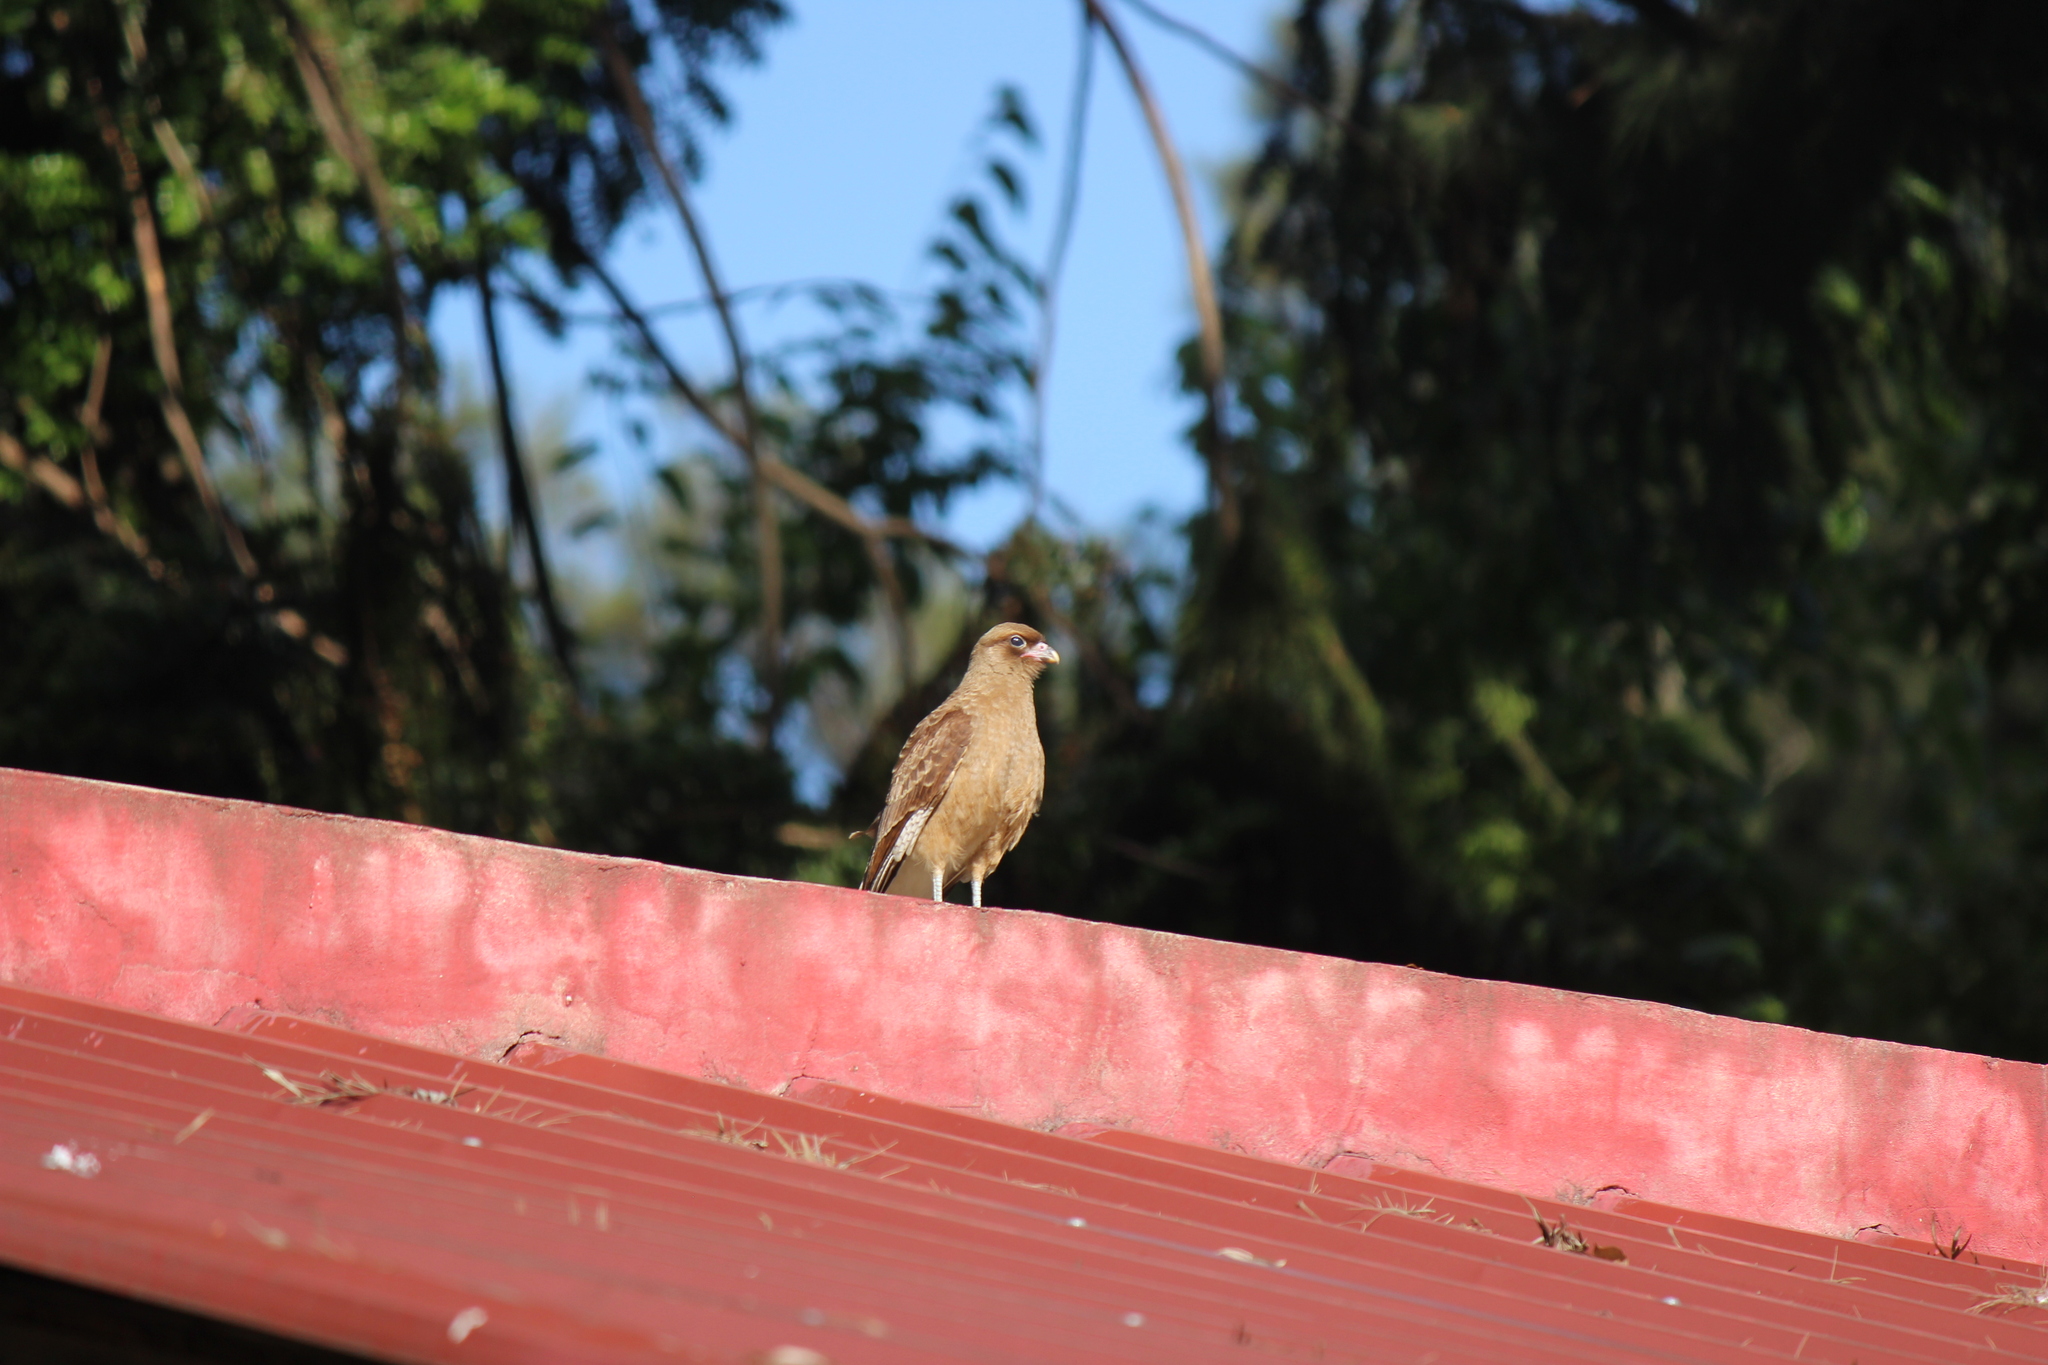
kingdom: Animalia
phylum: Chordata
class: Aves
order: Falconiformes
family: Falconidae
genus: Daptrius
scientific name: Daptrius
